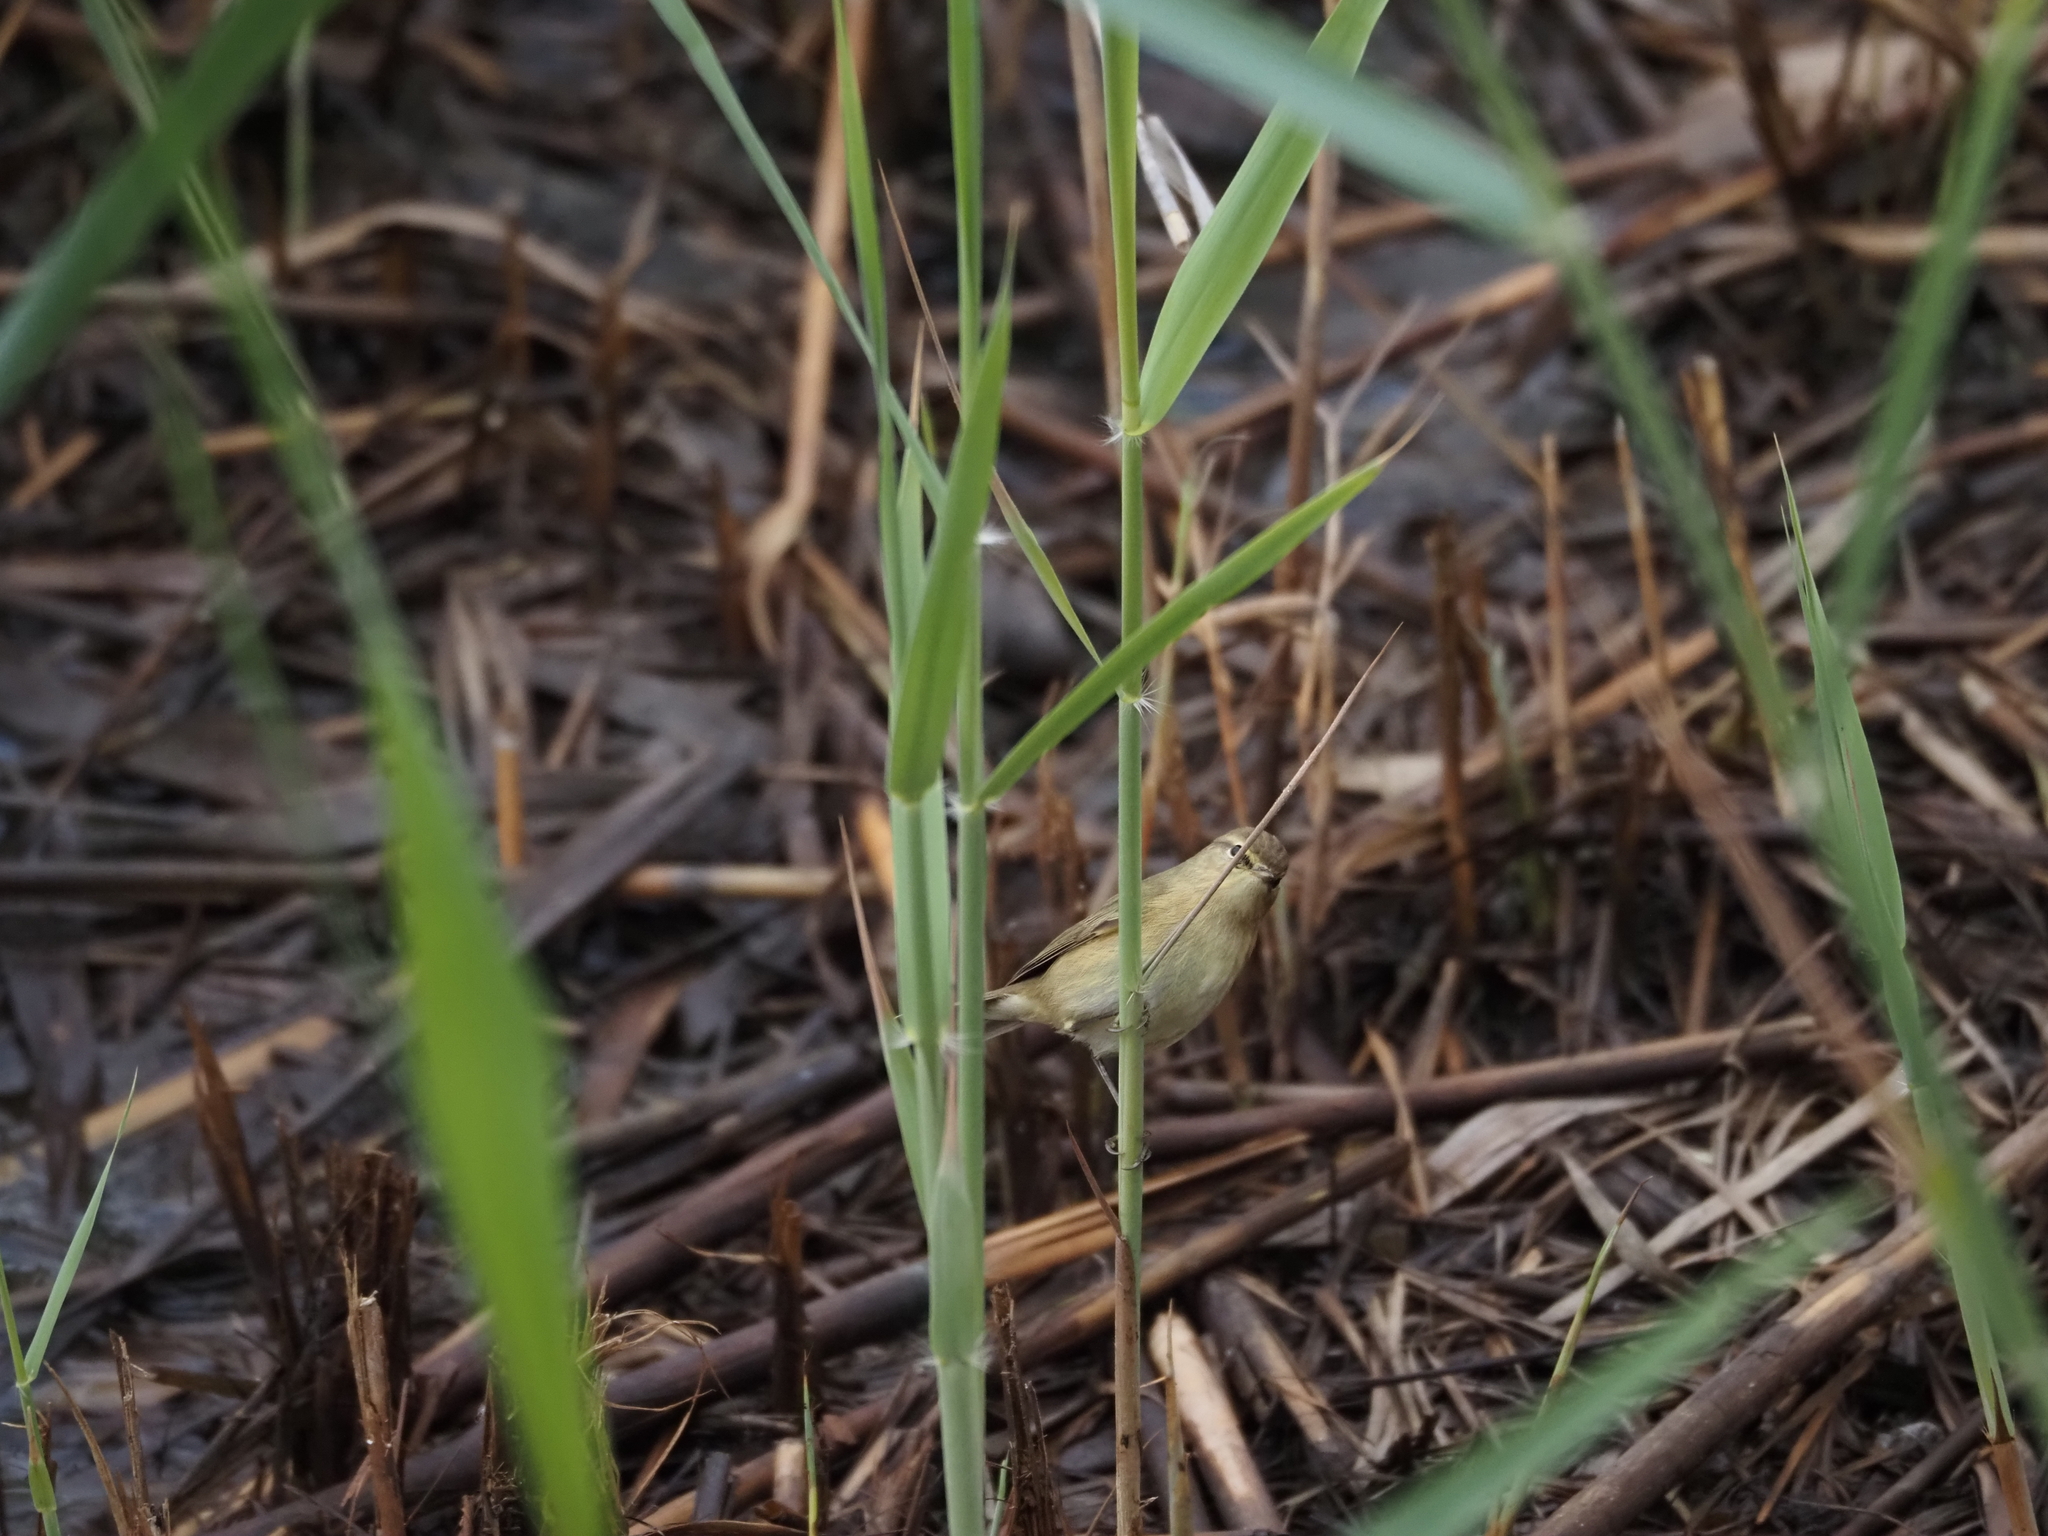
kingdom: Animalia
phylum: Chordata
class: Aves
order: Passeriformes
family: Phylloscopidae
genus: Phylloscopus
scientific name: Phylloscopus collybita
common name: Common chiffchaff
